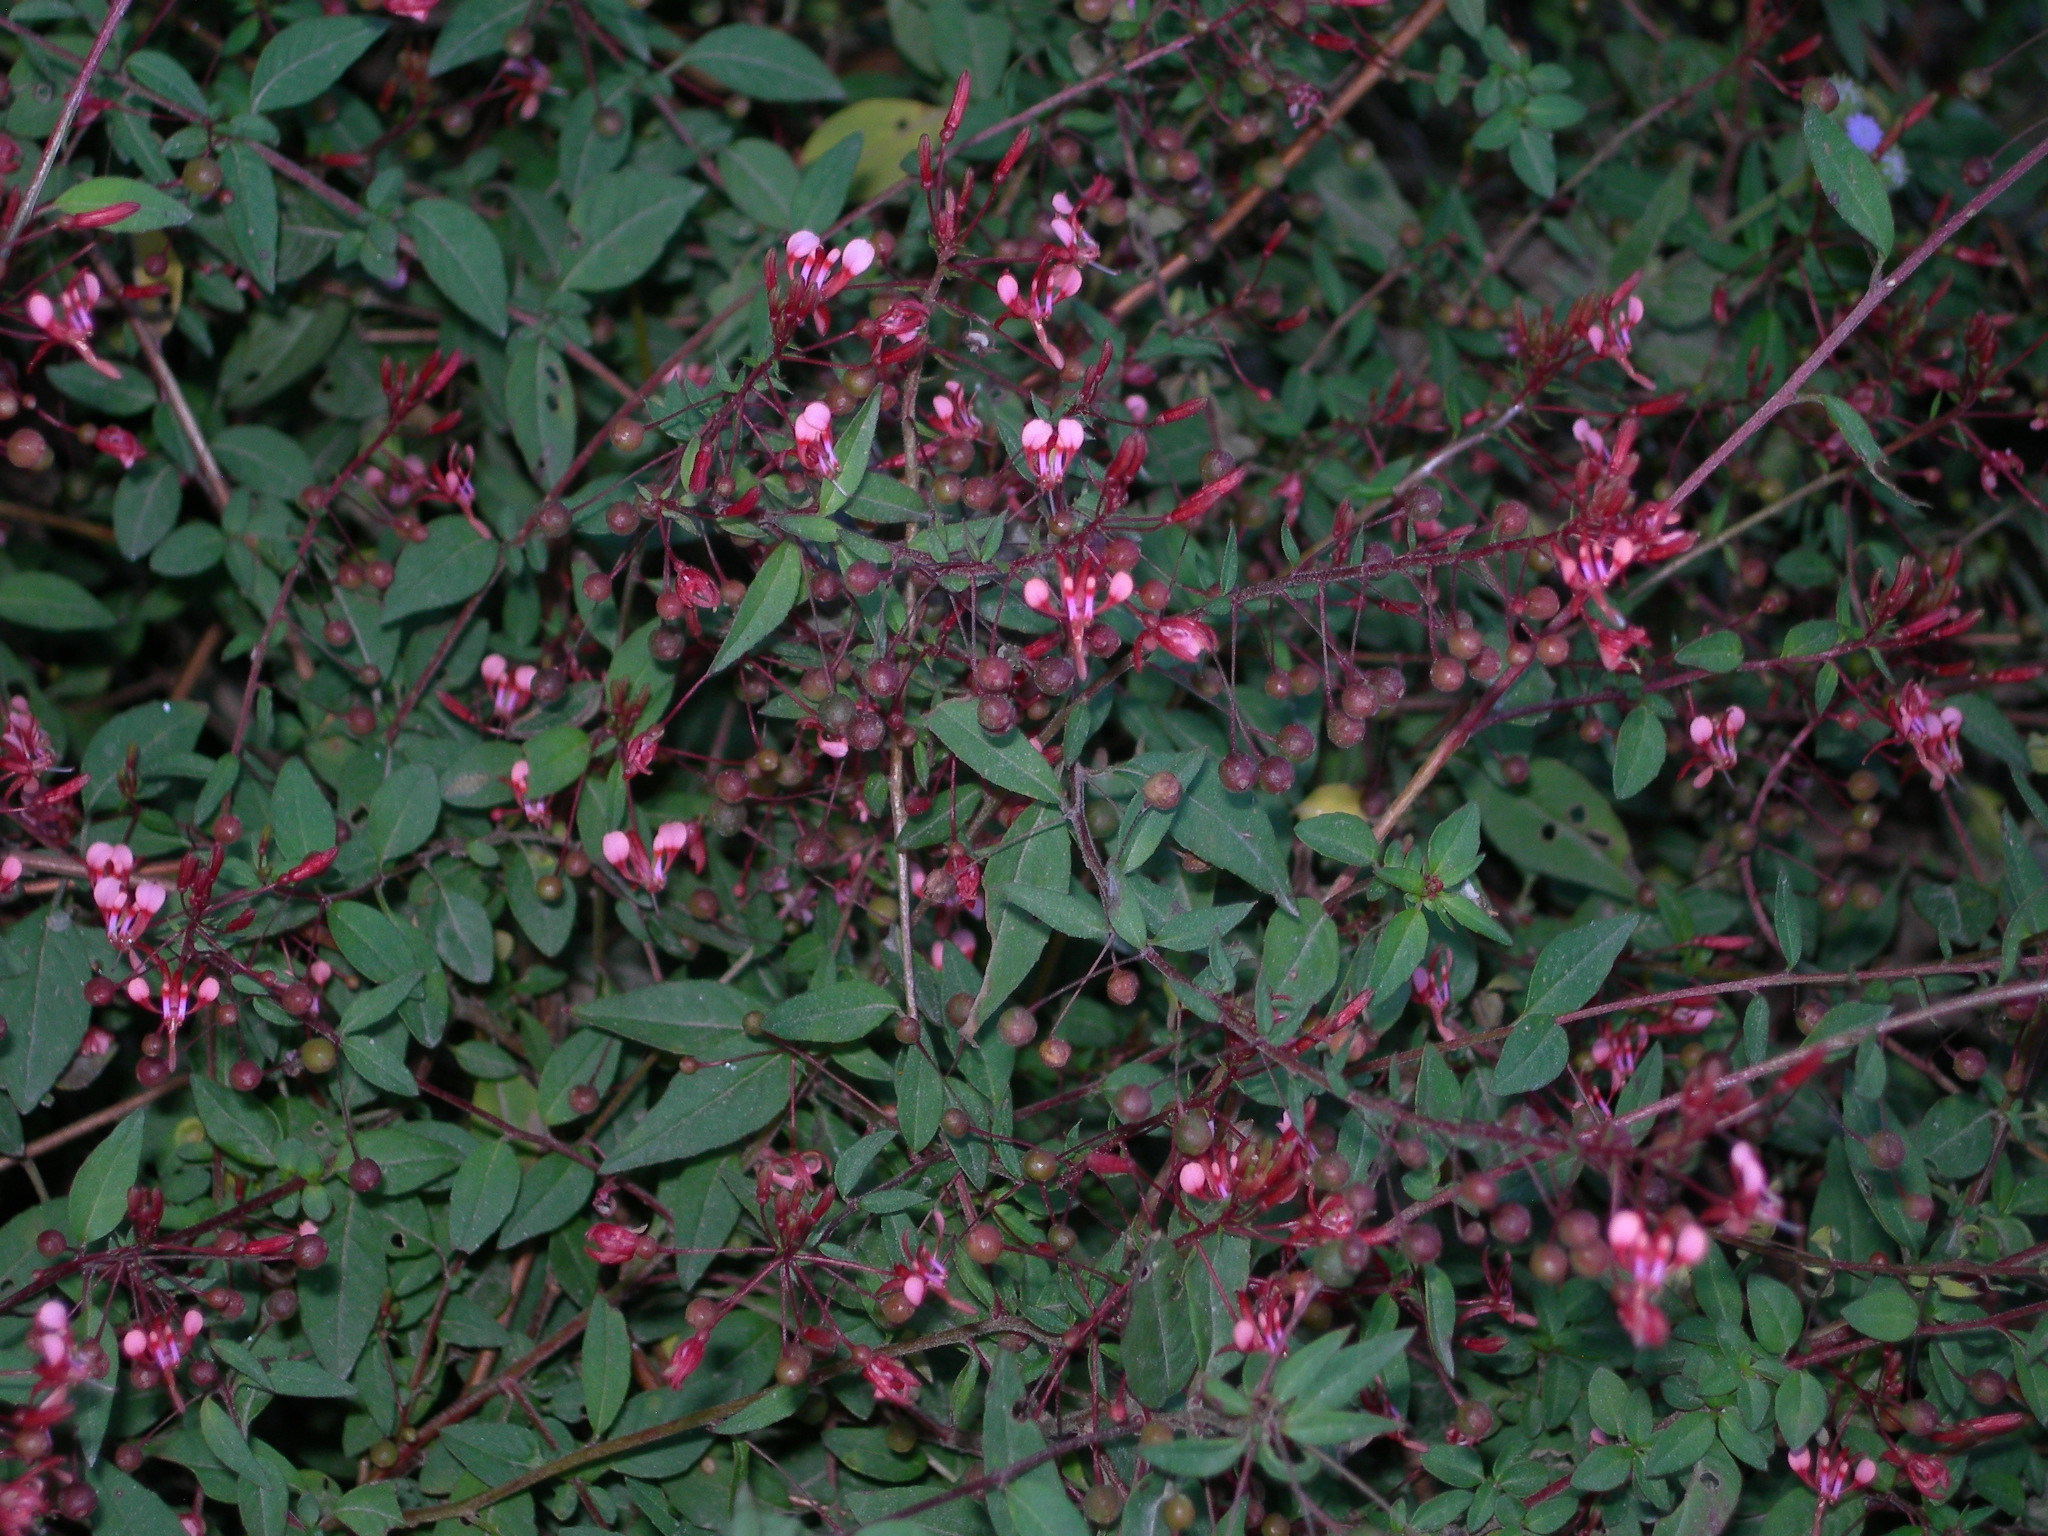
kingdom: Plantae
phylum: Tracheophyta
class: Magnoliopsida
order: Myrtales
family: Onagraceae
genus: Lopezia
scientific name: Lopezia racemosa
